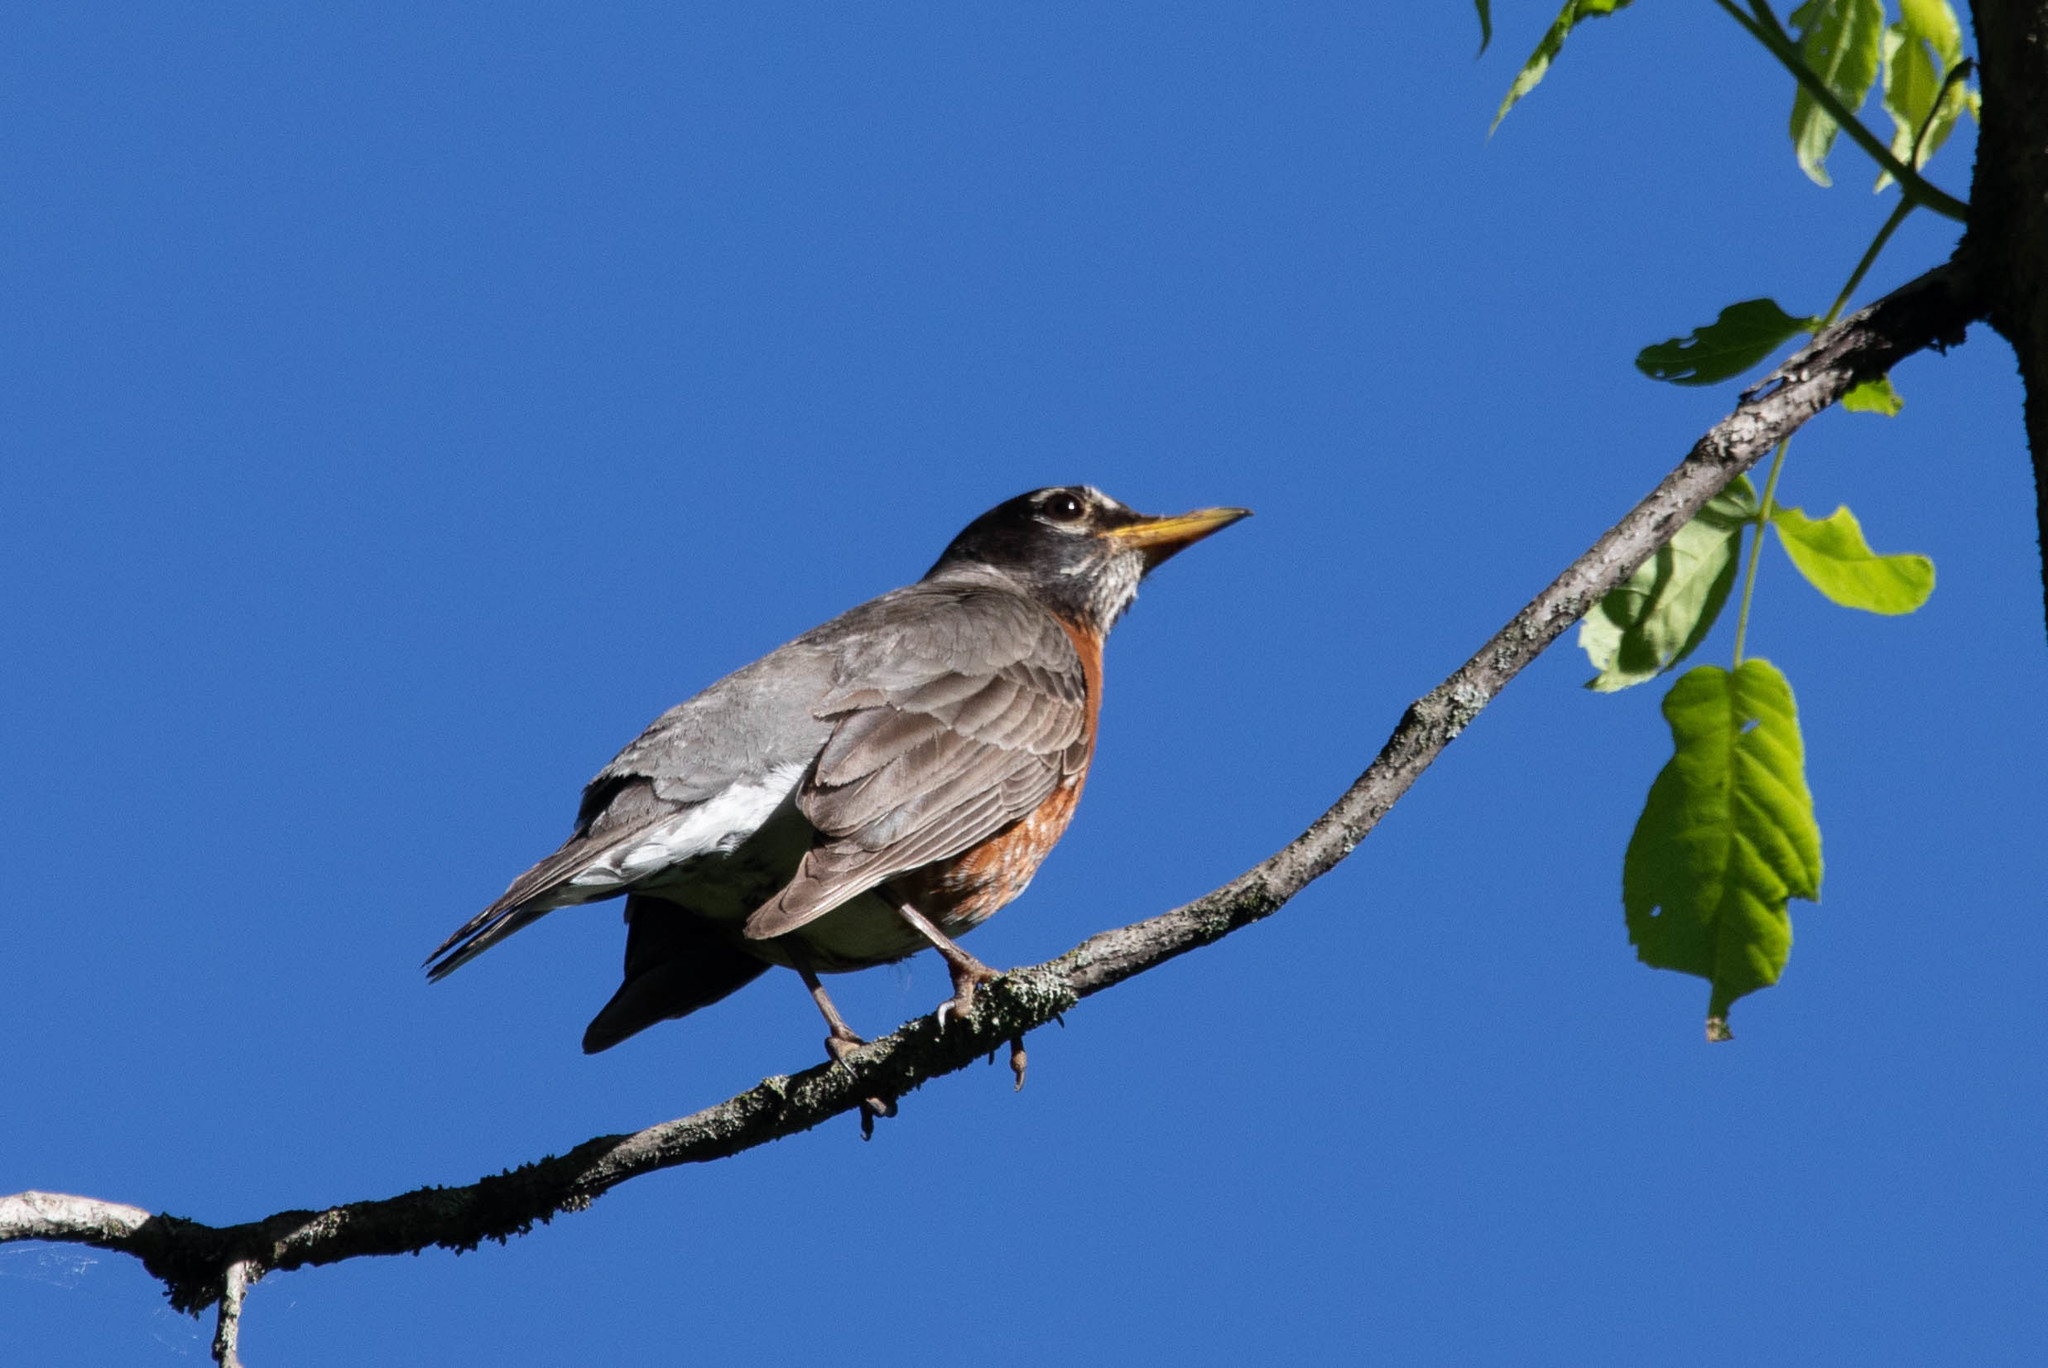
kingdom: Animalia
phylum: Chordata
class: Aves
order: Passeriformes
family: Turdidae
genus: Turdus
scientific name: Turdus migratorius
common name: American robin
